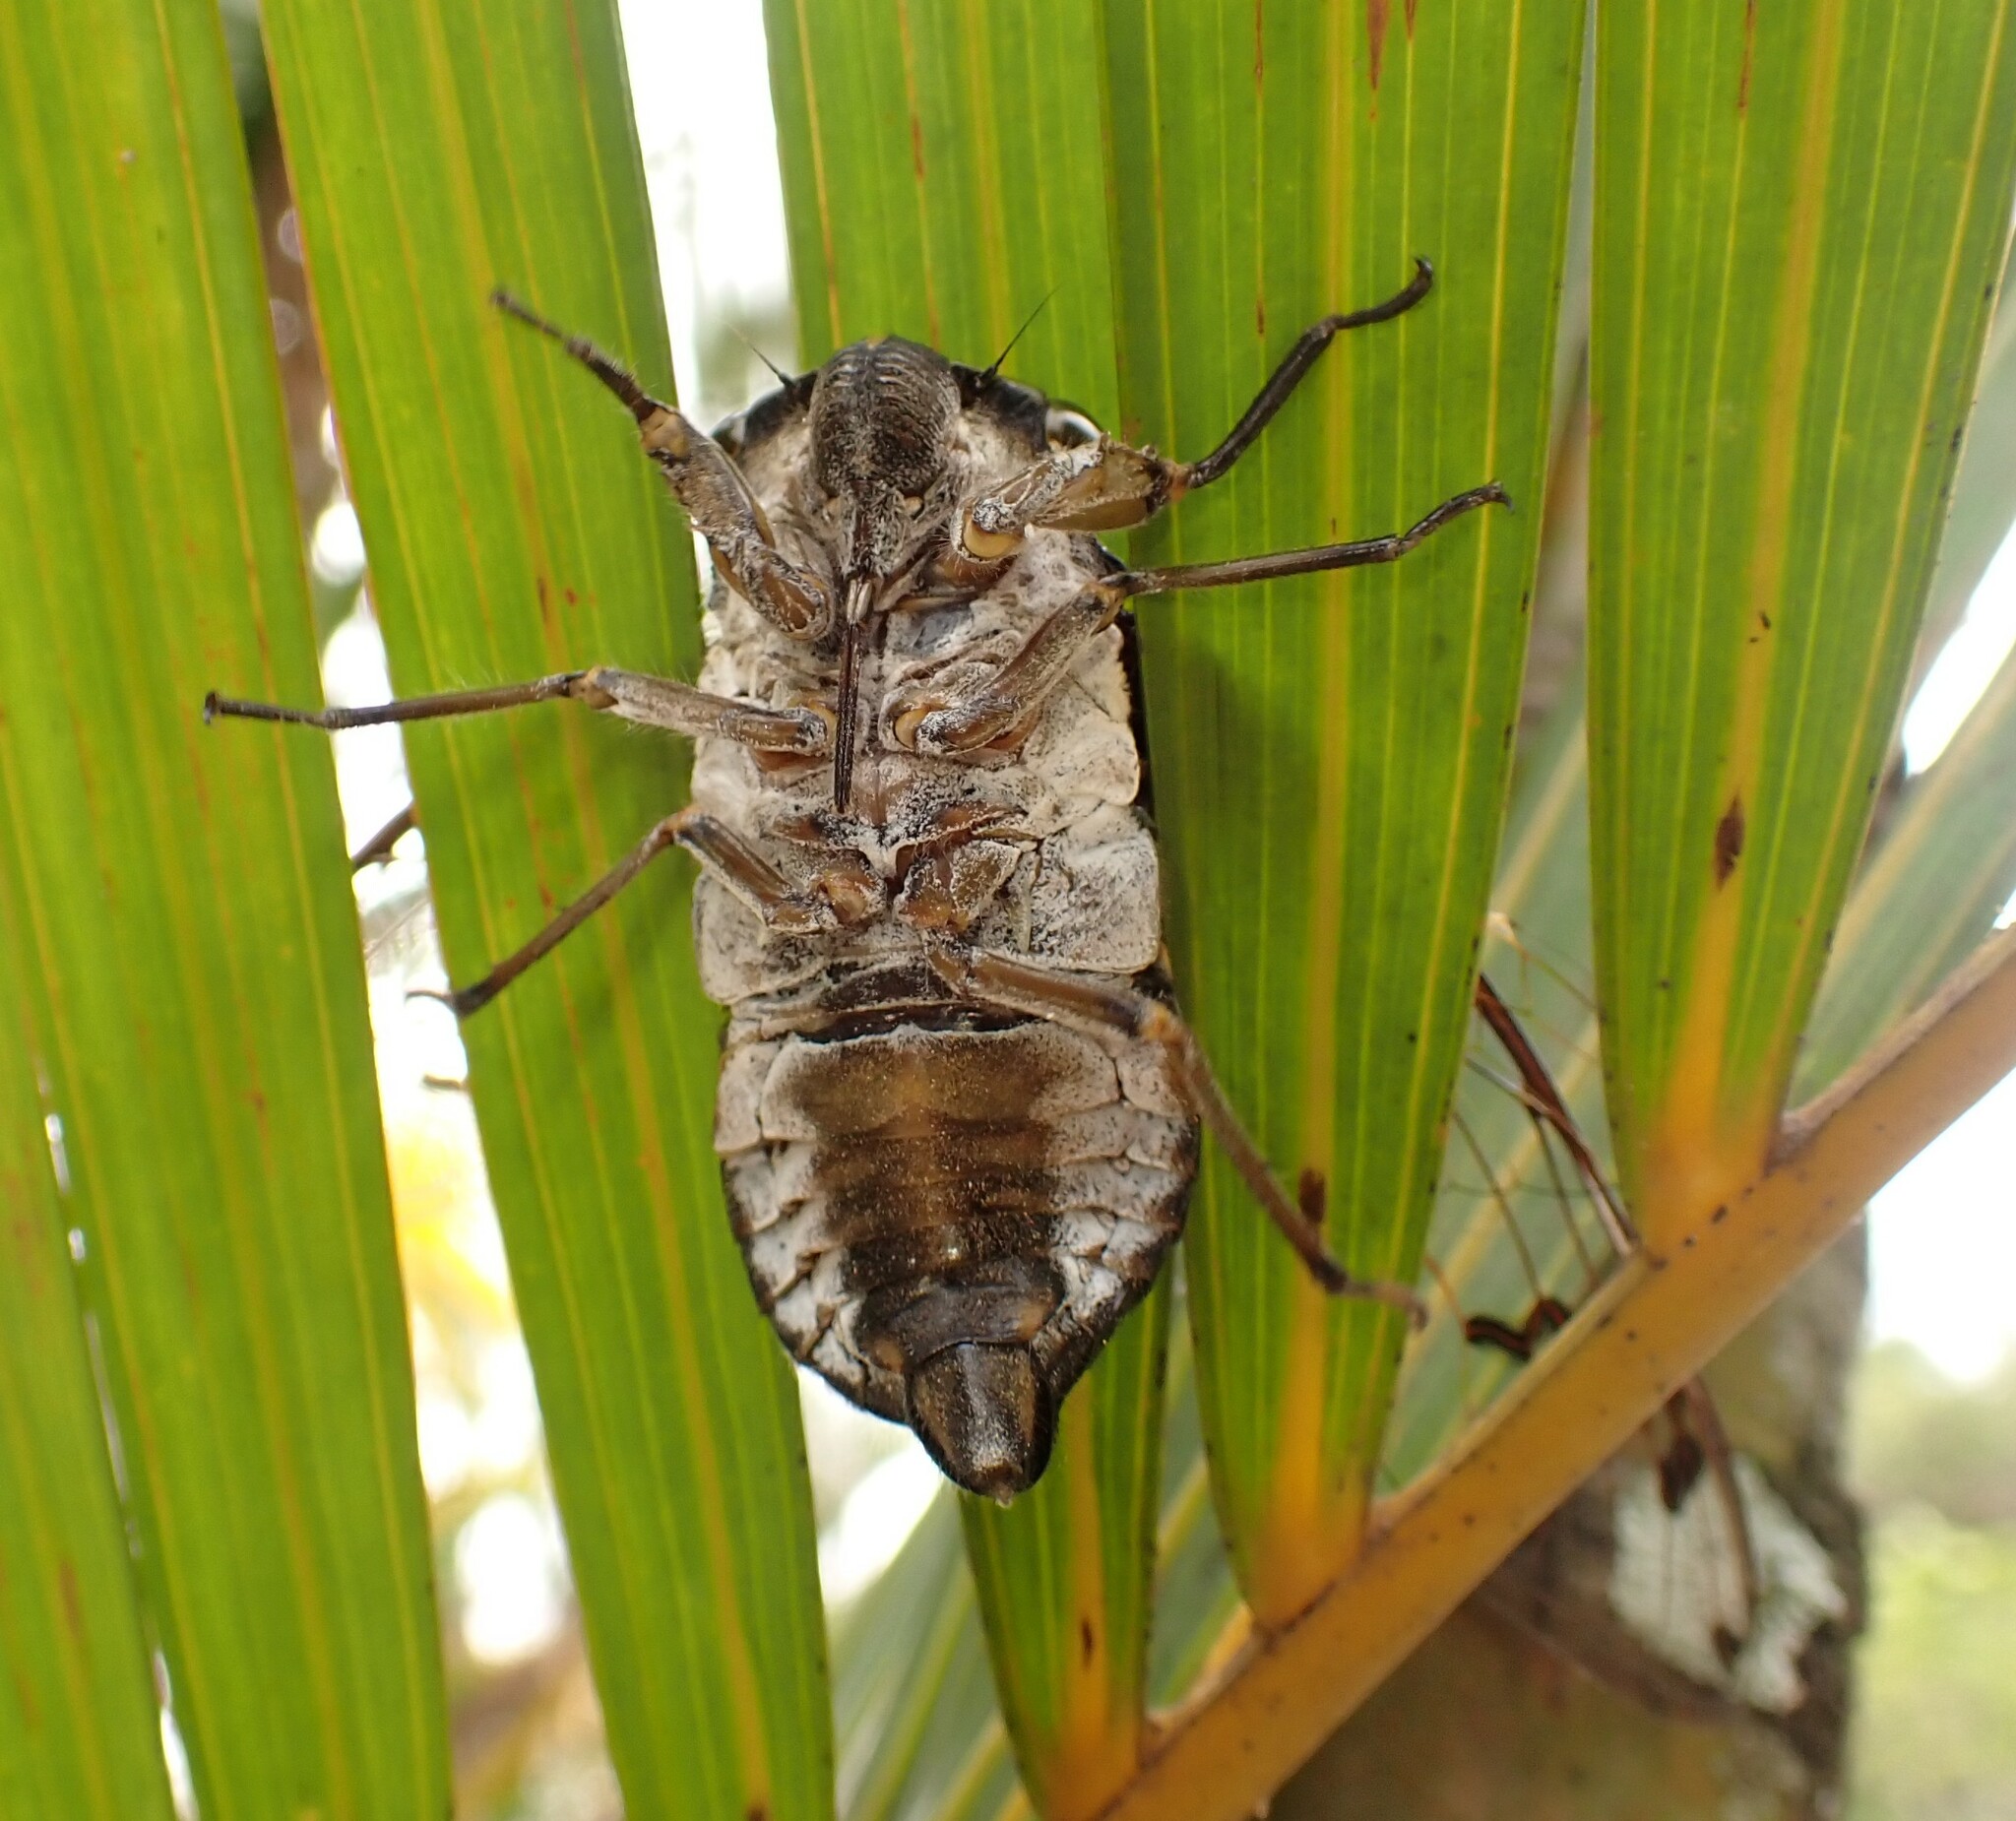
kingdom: Animalia
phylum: Arthropoda
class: Insecta
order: Hemiptera
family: Cicadidae
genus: Quesada
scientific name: Quesada gigas
